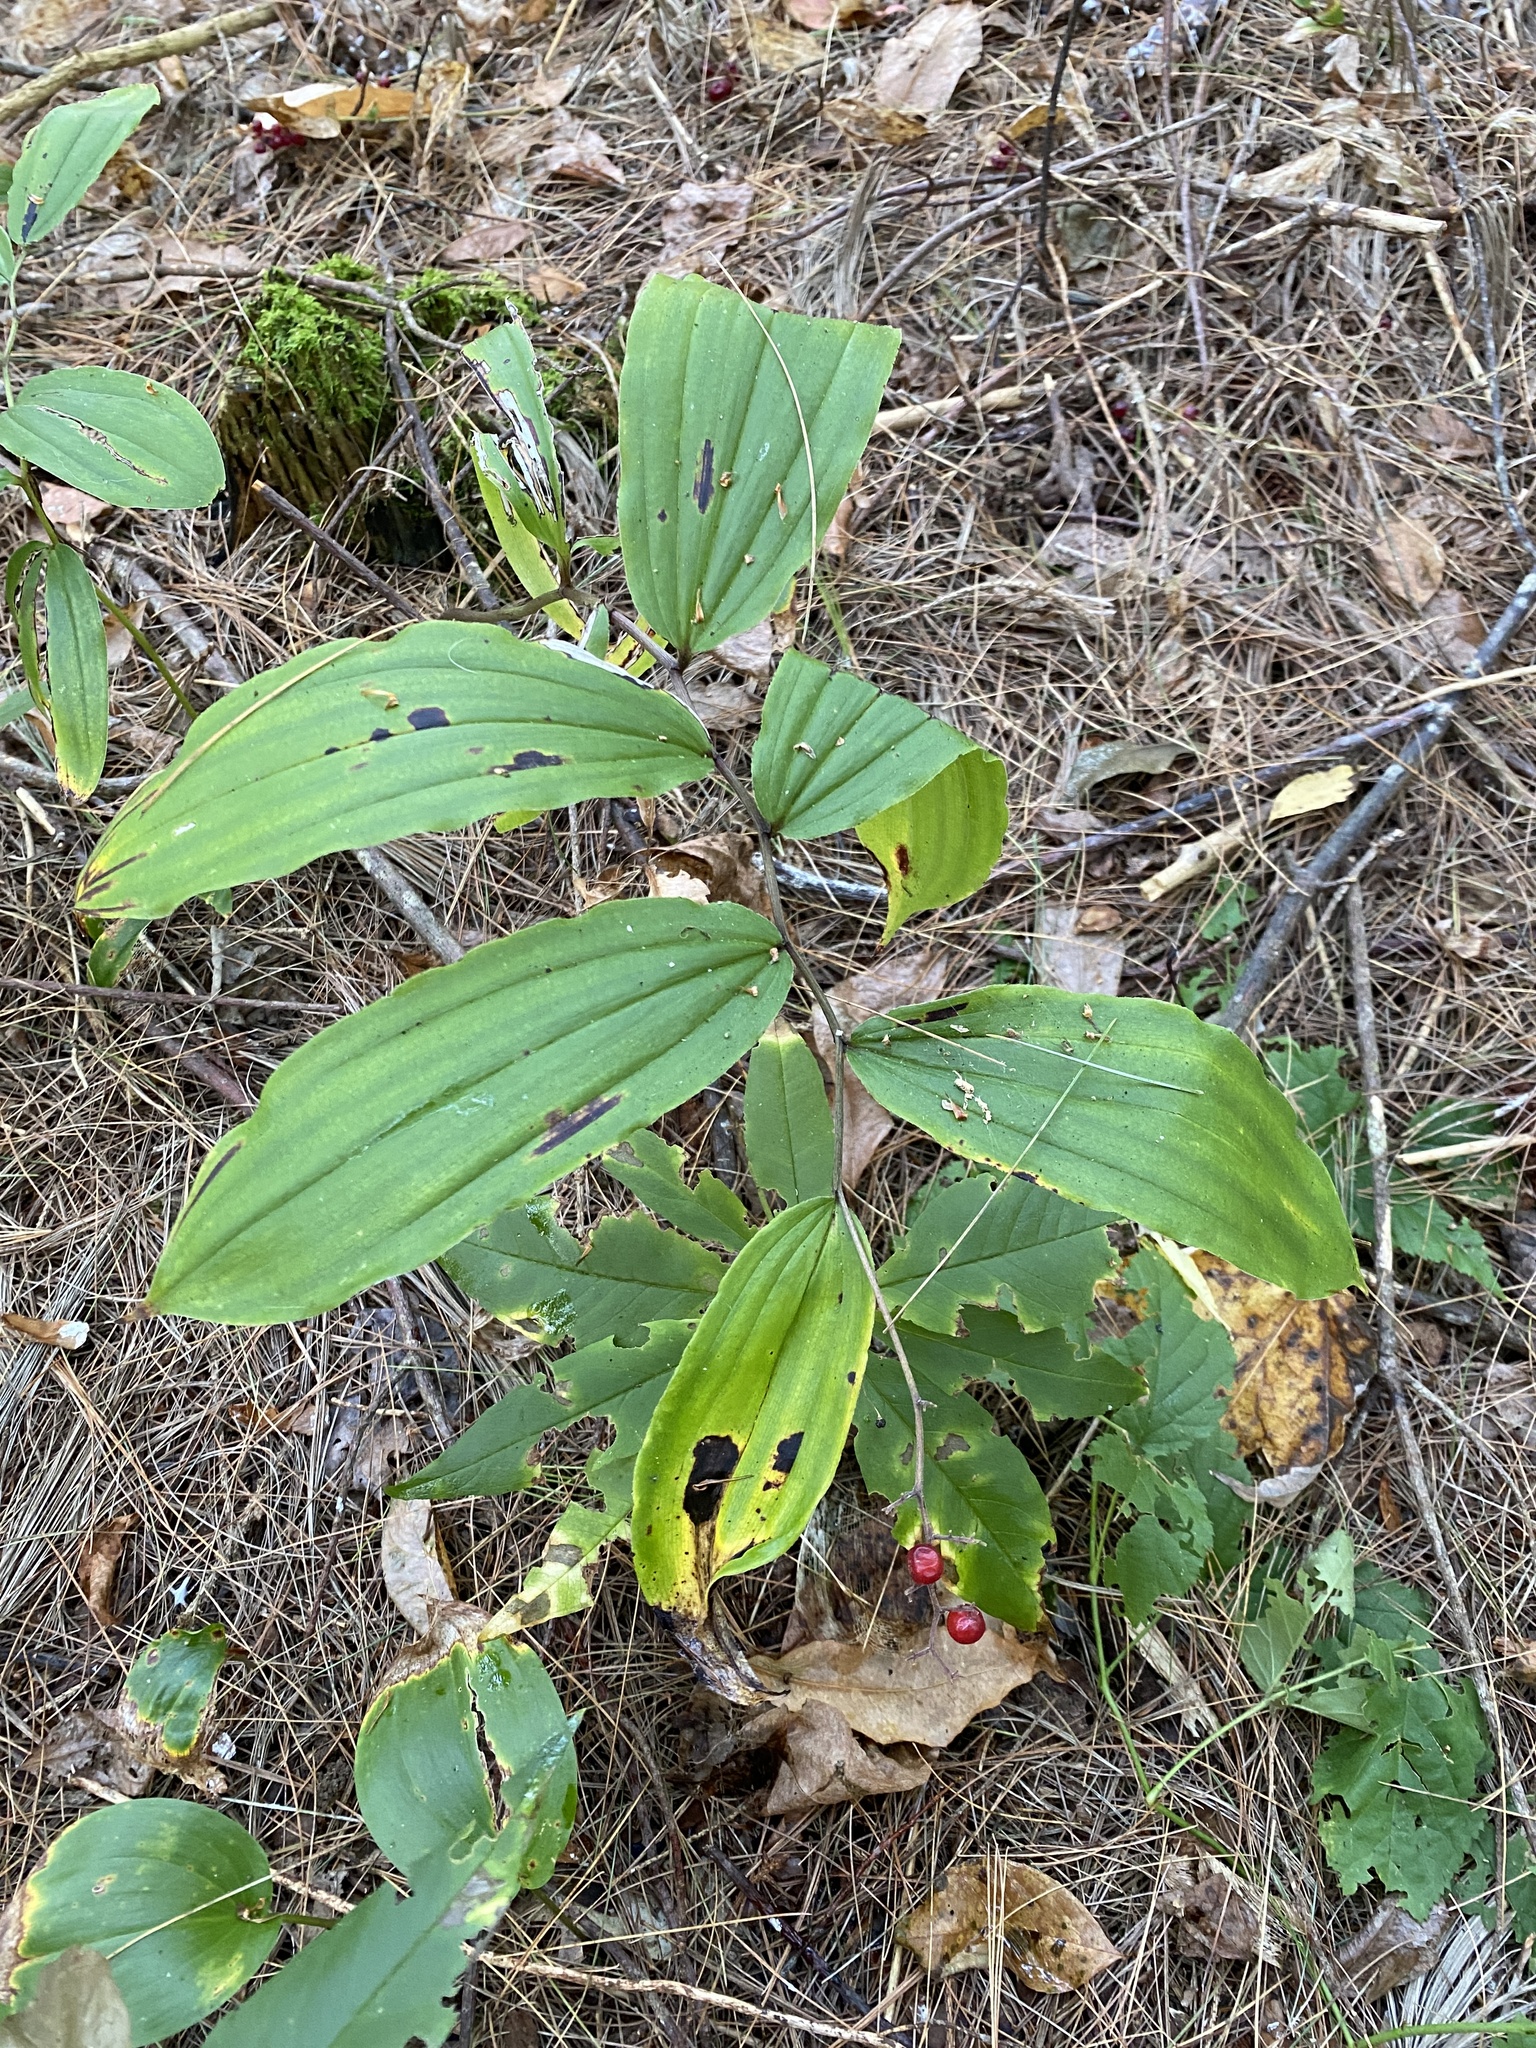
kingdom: Plantae
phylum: Tracheophyta
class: Liliopsida
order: Asparagales
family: Asparagaceae
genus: Maianthemum
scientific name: Maianthemum racemosum
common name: False spikenard
